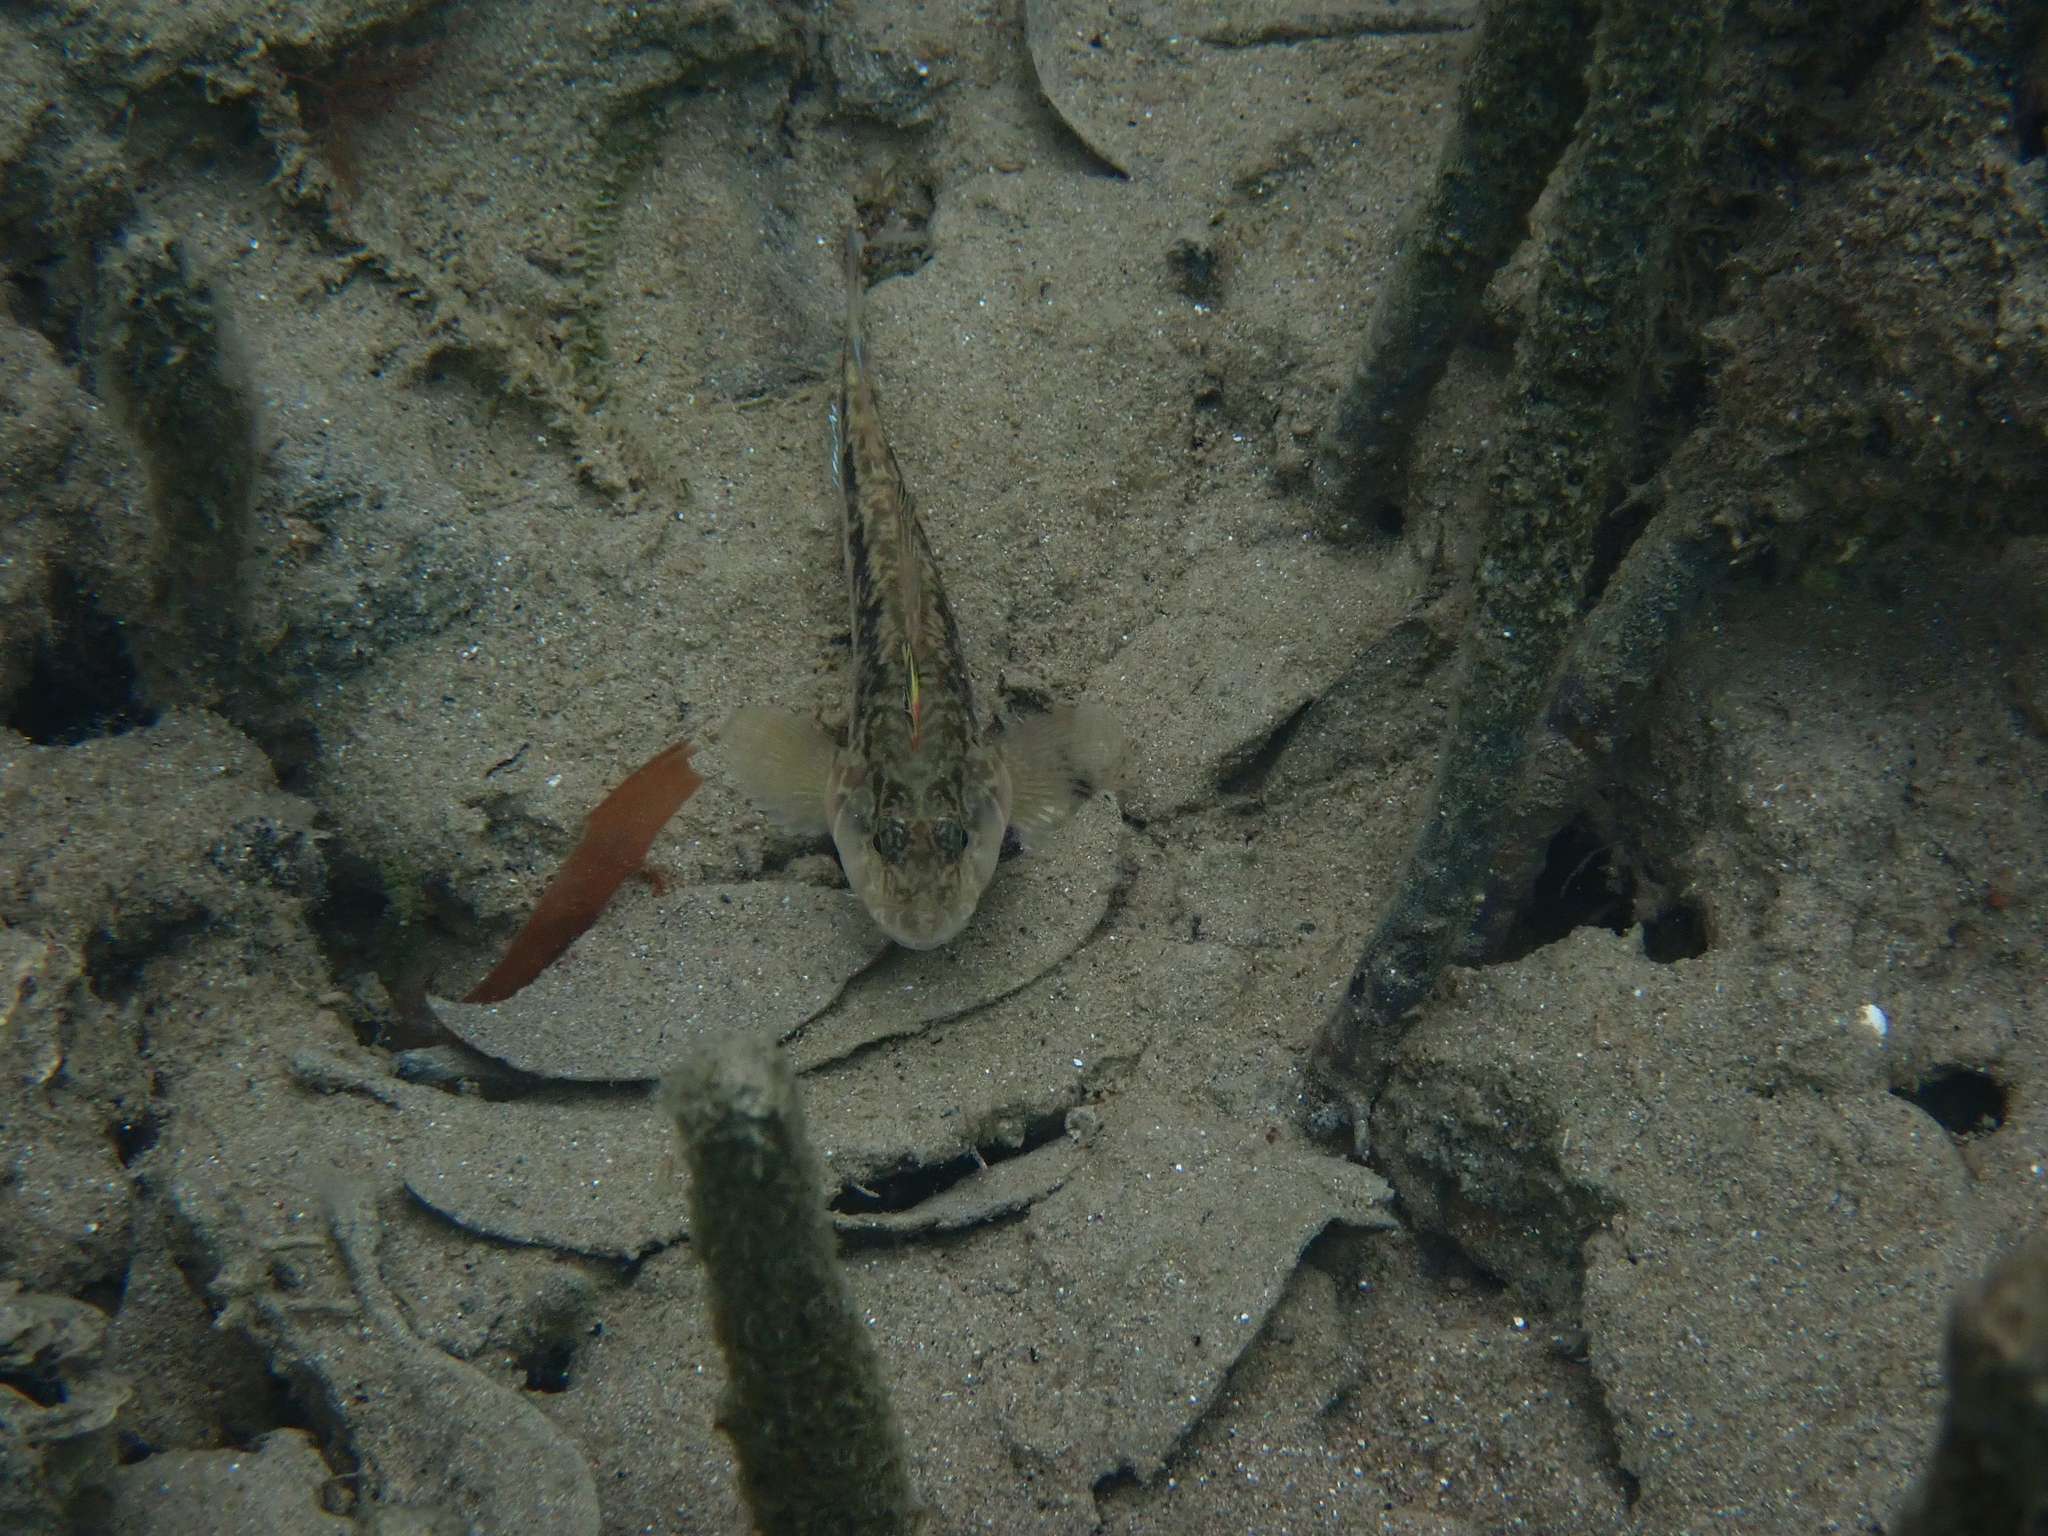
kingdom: Animalia
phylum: Chordata
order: Perciformes
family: Tripterygiidae
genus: Forsterygion
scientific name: Forsterygion nigripenne
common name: Cockabully
